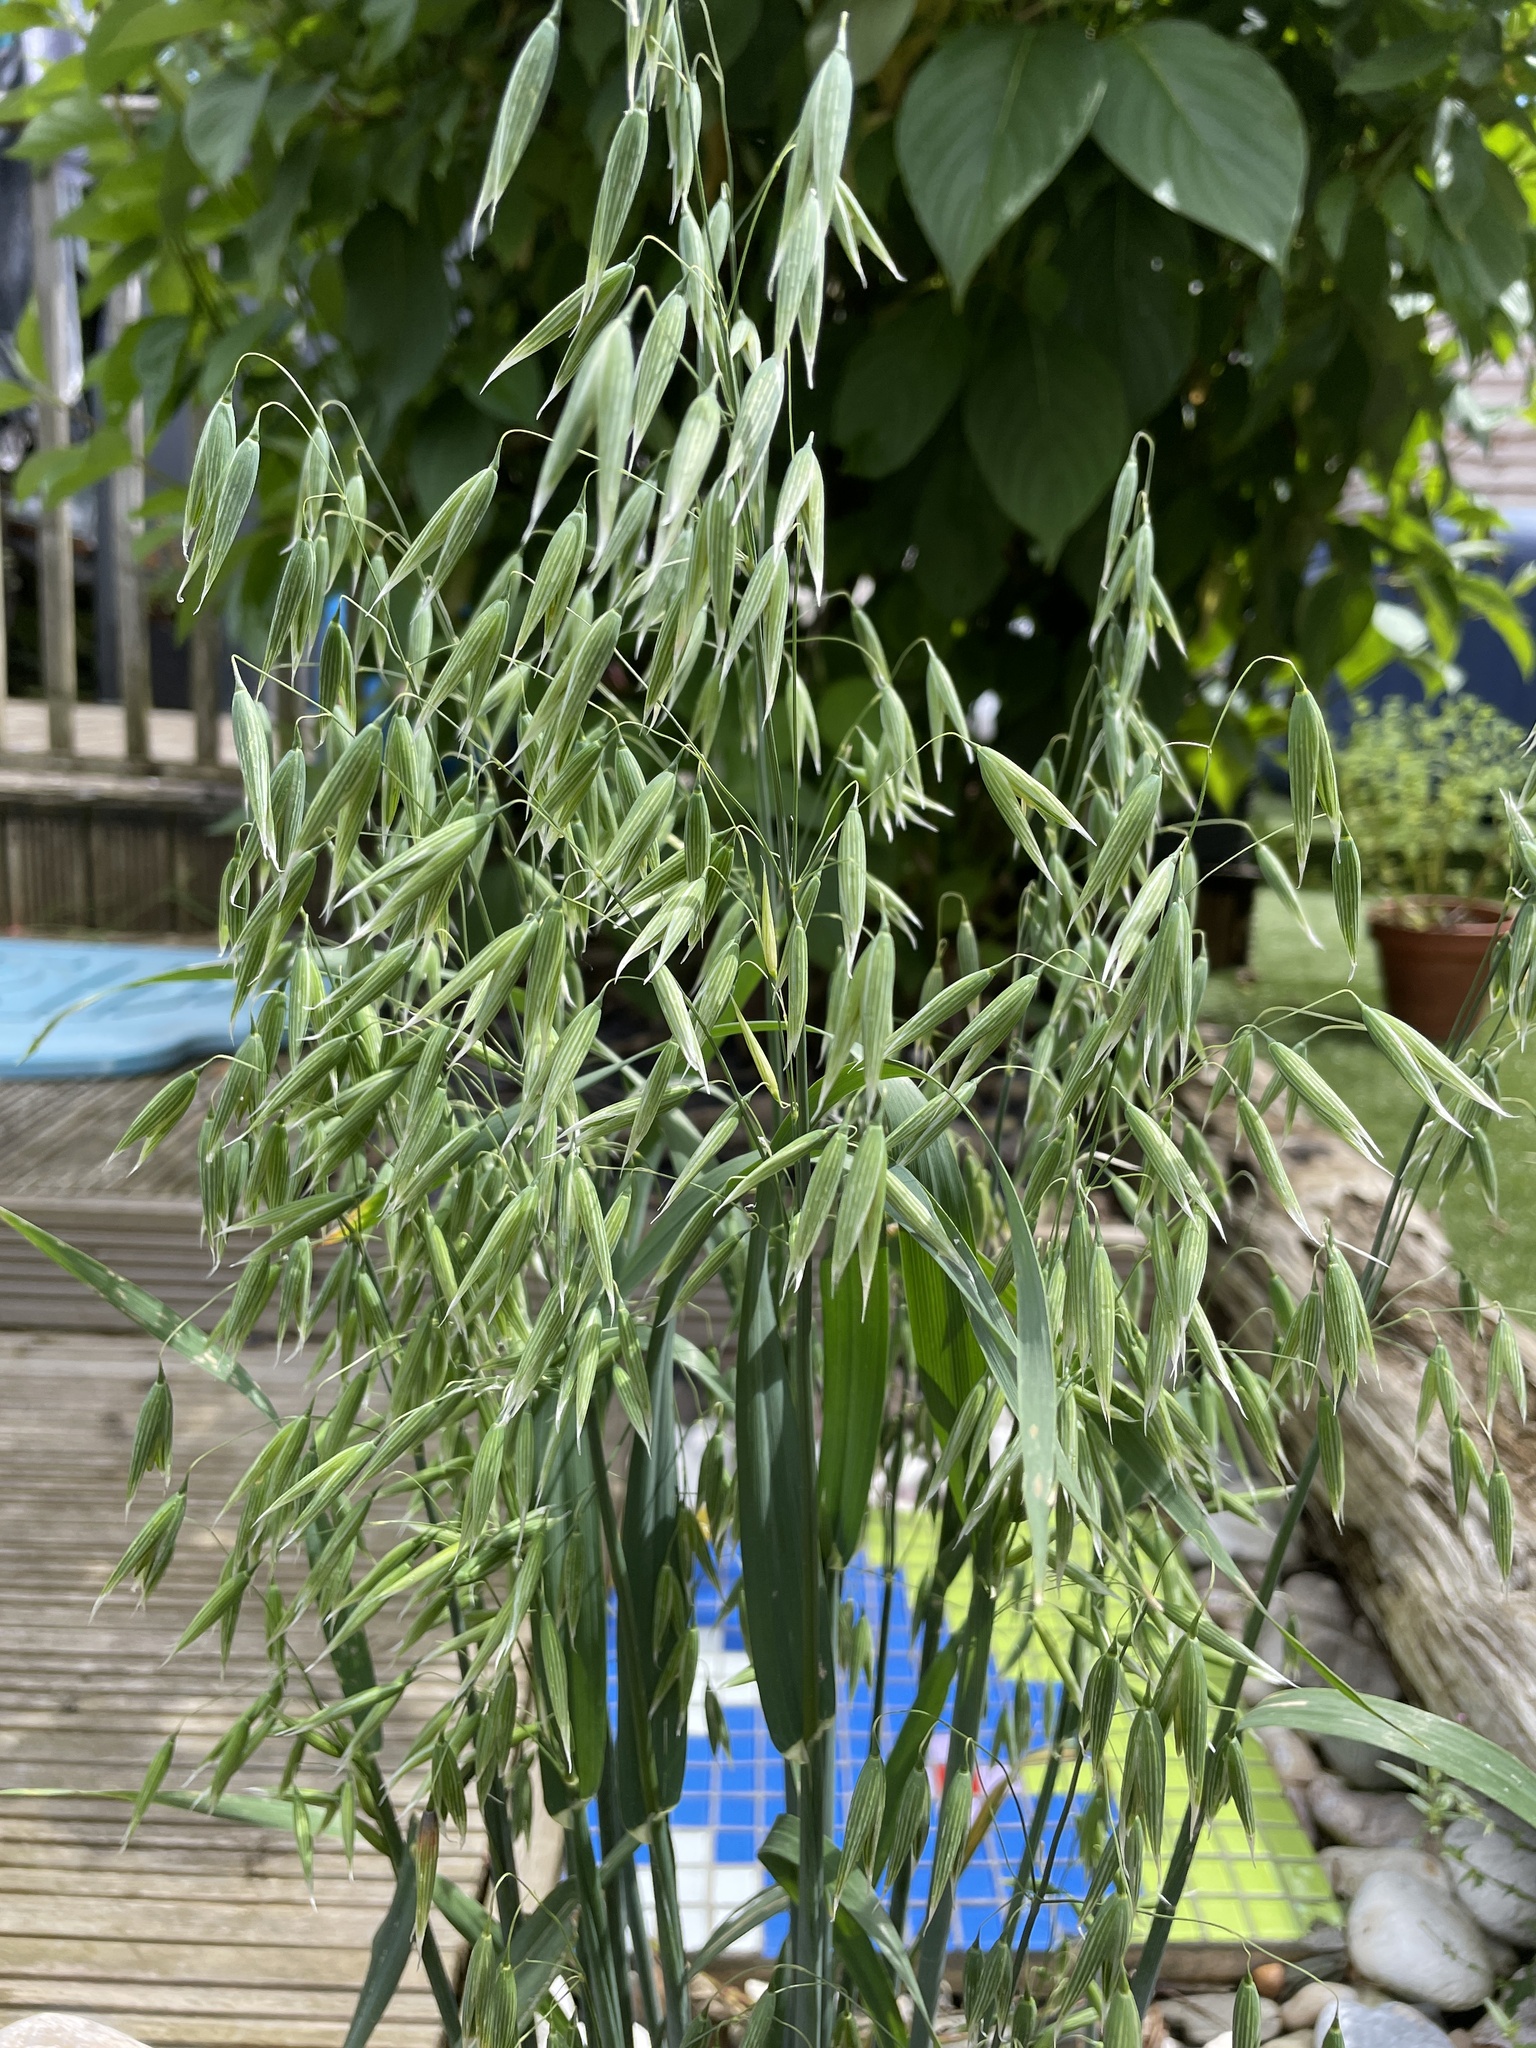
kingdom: Plantae
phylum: Tracheophyta
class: Liliopsida
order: Poales
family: Poaceae
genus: Avena
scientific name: Avena sativa
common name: Oat
